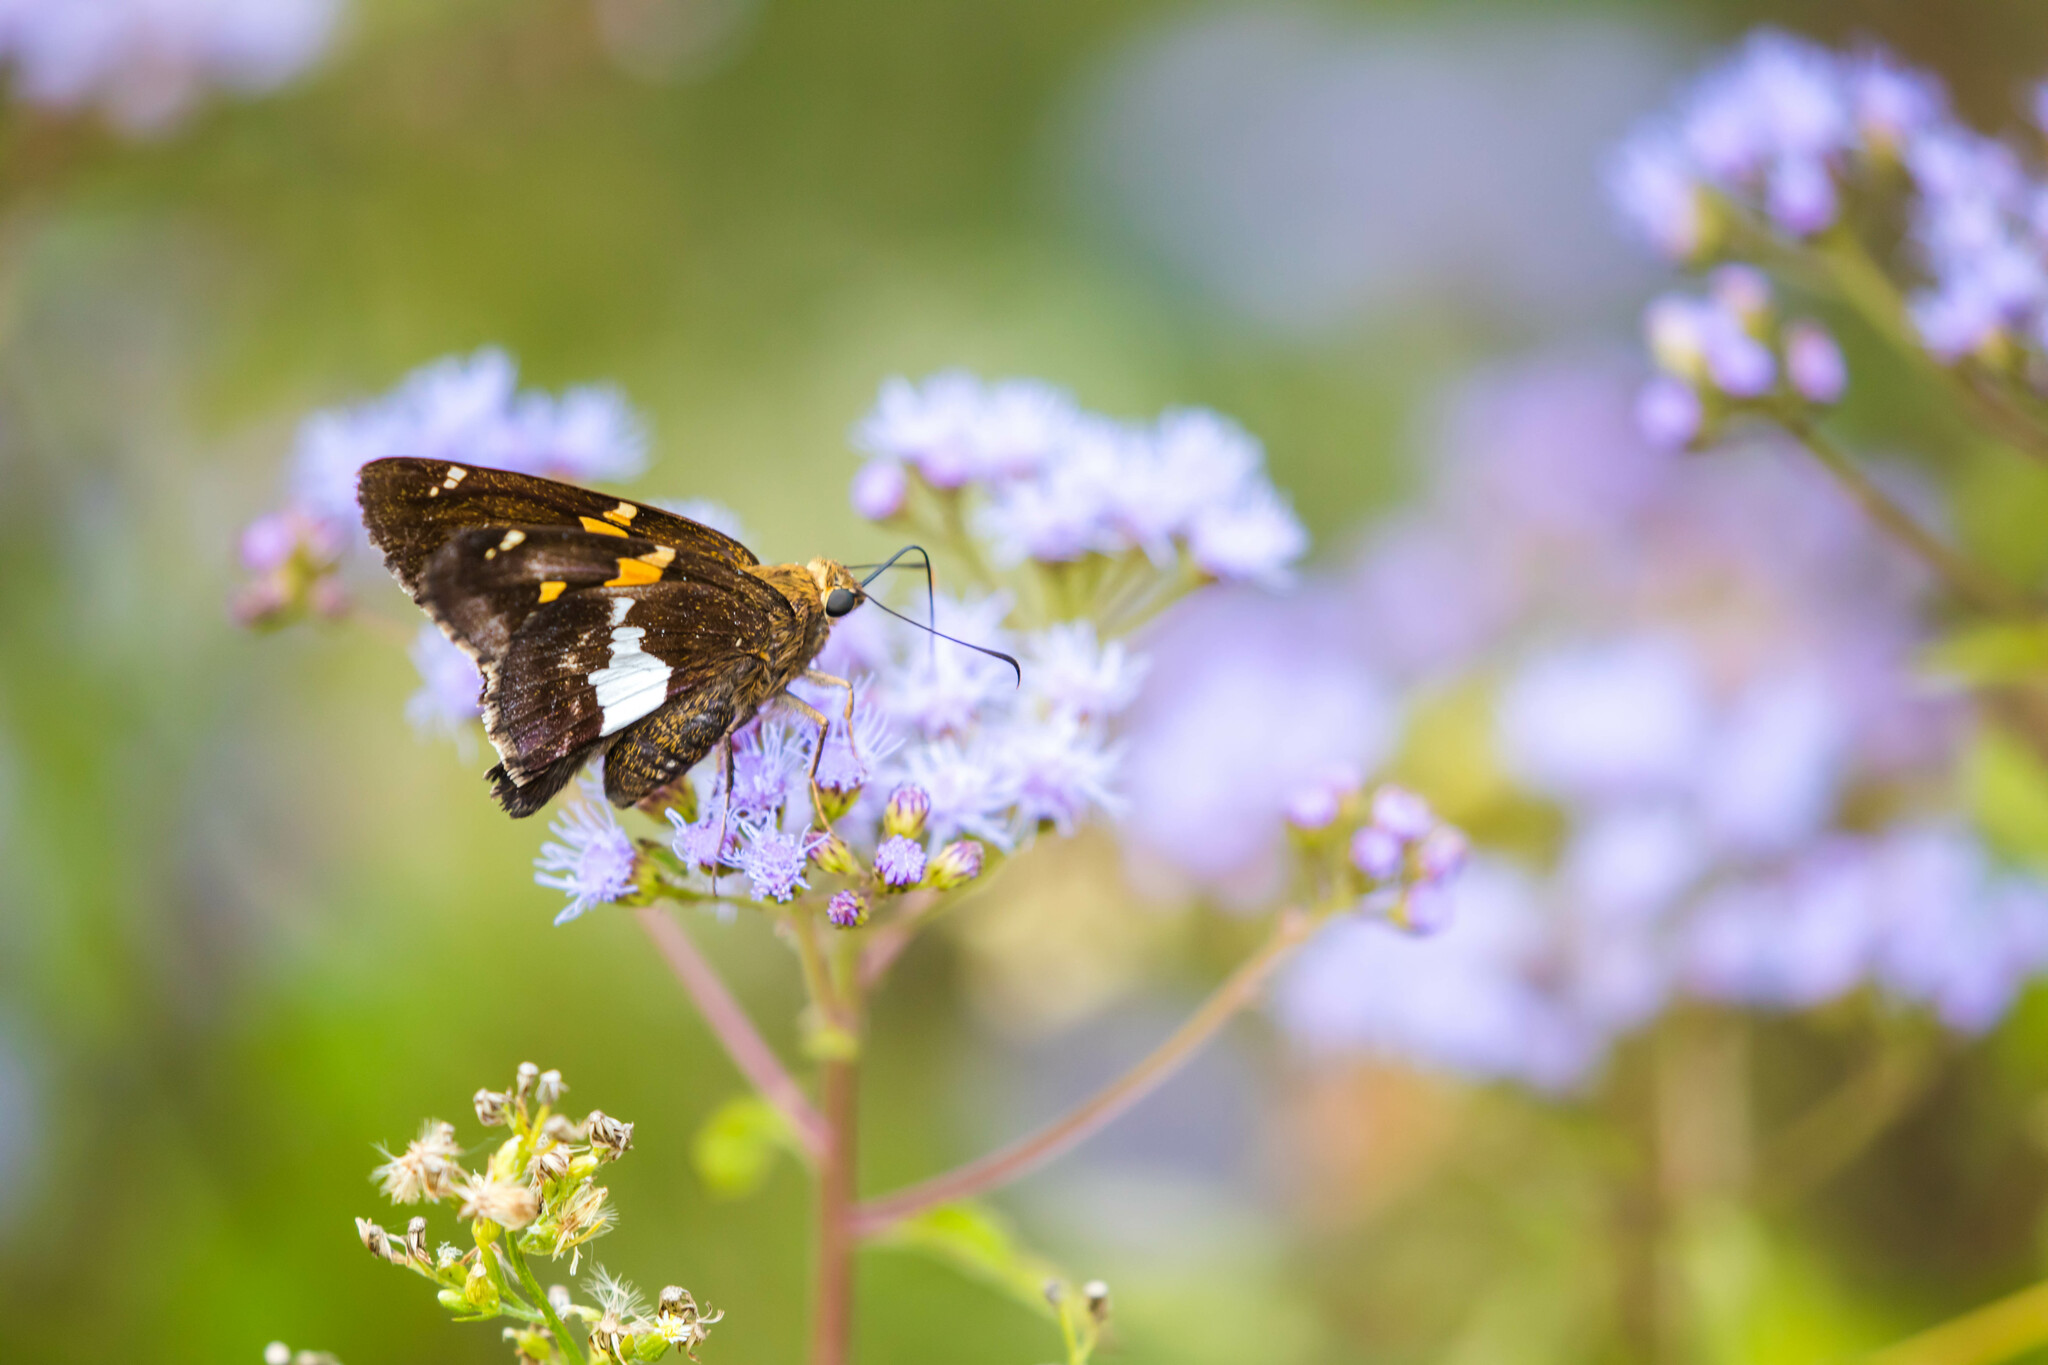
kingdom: Animalia
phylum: Arthropoda
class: Insecta
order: Lepidoptera
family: Hesperiidae
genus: Epargyreus
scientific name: Epargyreus clarus
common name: Silver-spotted skipper
